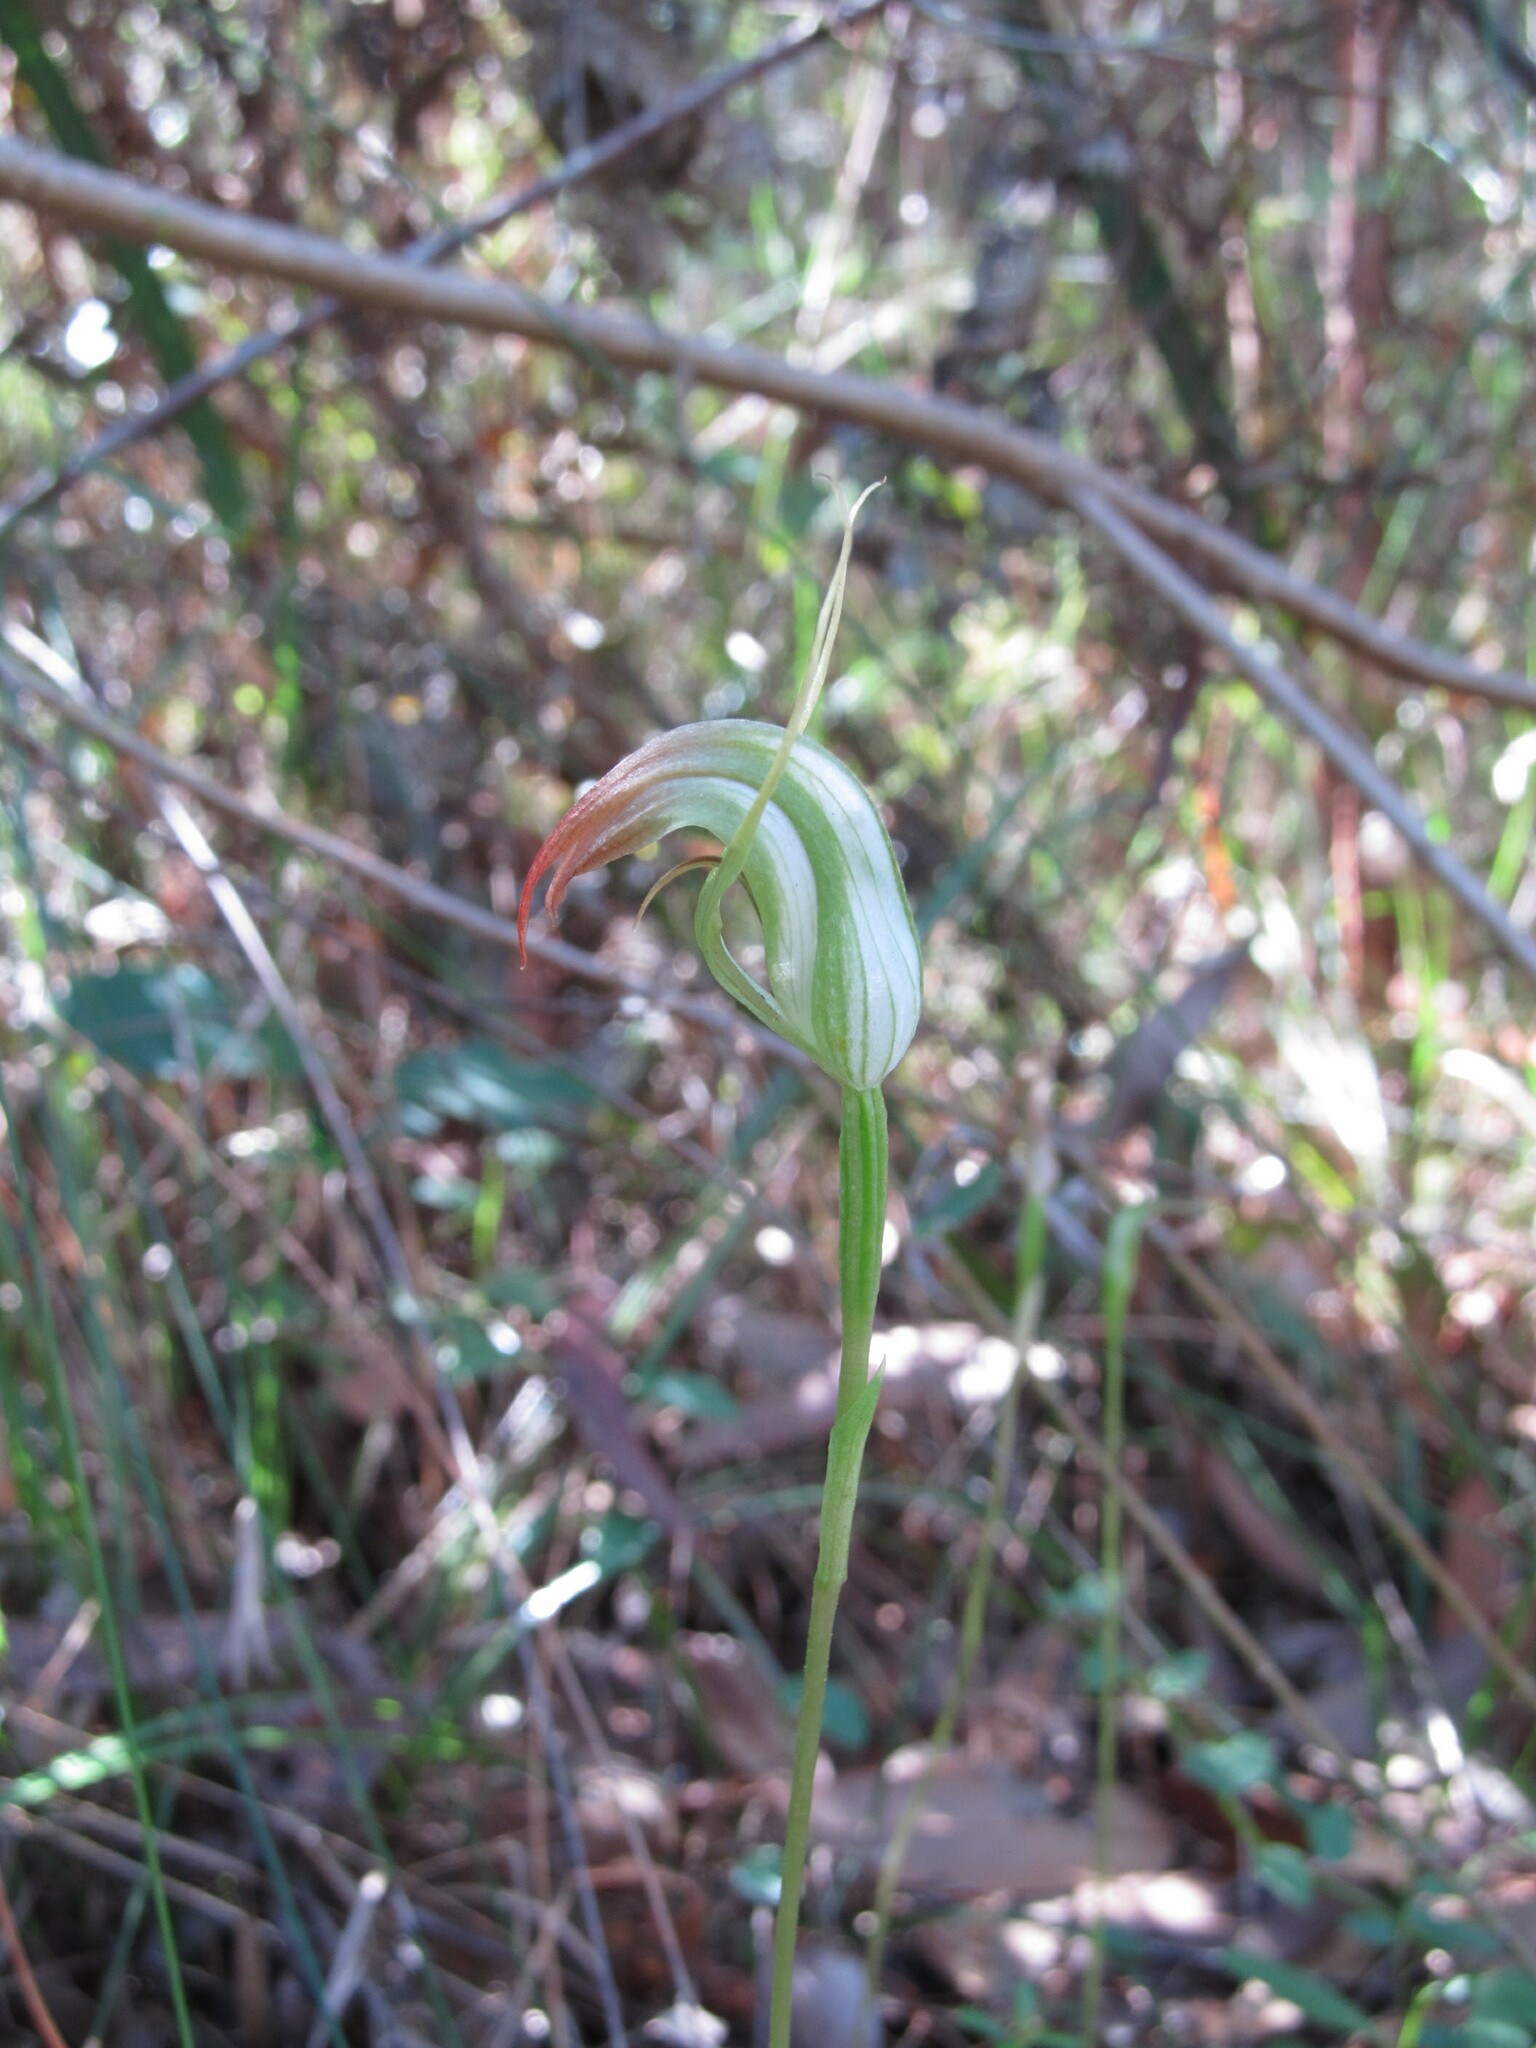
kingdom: Plantae
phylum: Tracheophyta
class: Liliopsida
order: Asparagales
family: Orchidaceae
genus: Pterostylis
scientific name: Pterostylis acuminata
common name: Pointed greenhood
